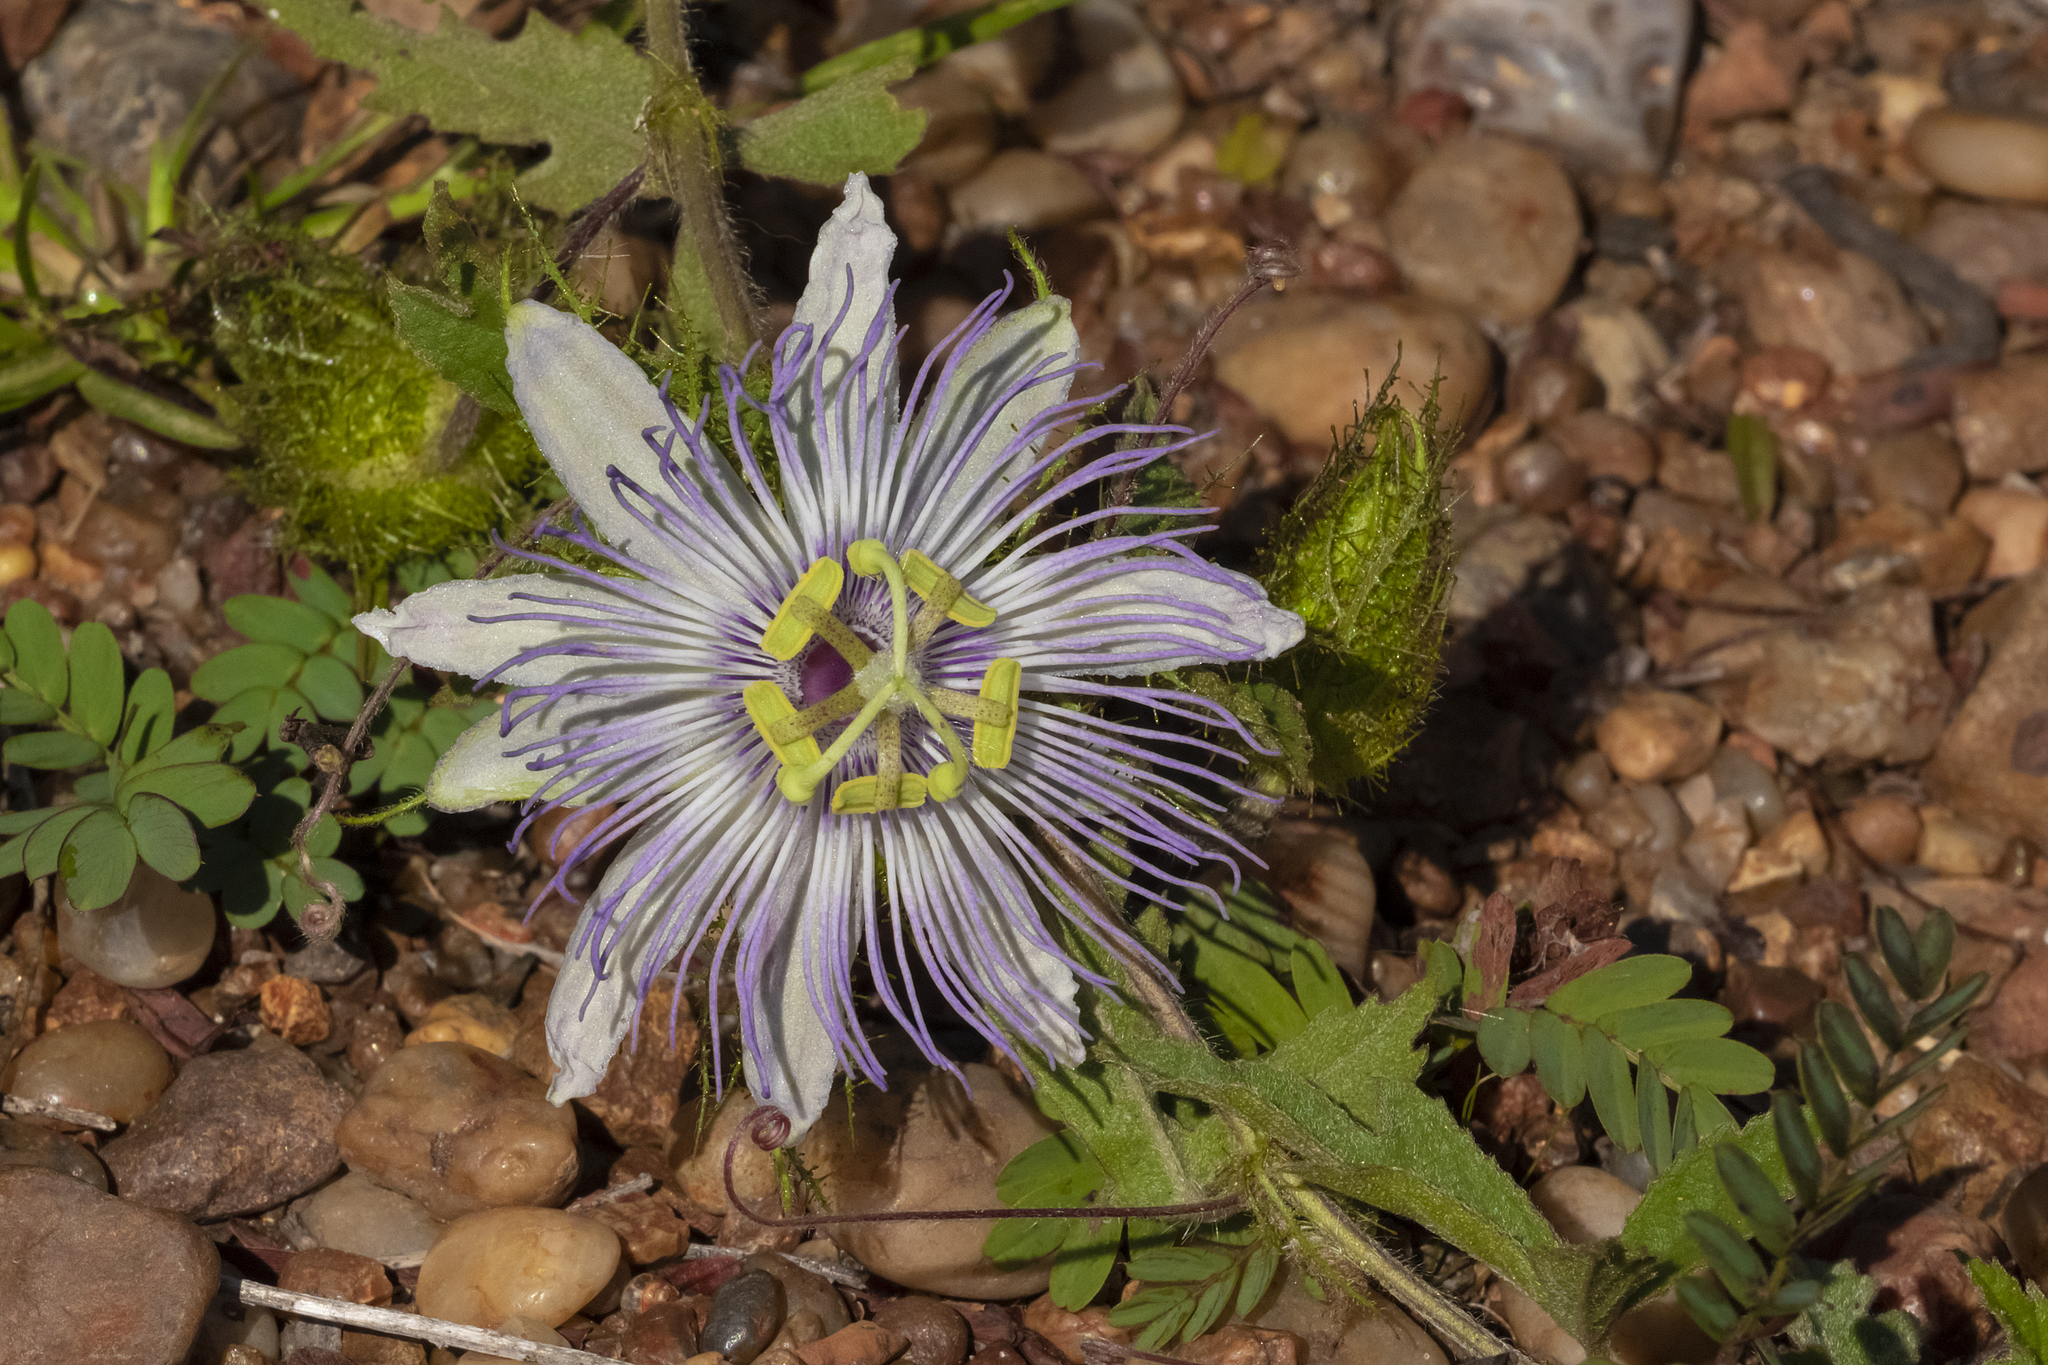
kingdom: Plantae
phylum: Tracheophyta
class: Magnoliopsida
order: Malpighiales
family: Passifloraceae
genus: Passiflora
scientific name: Passiflora chrysophylla
